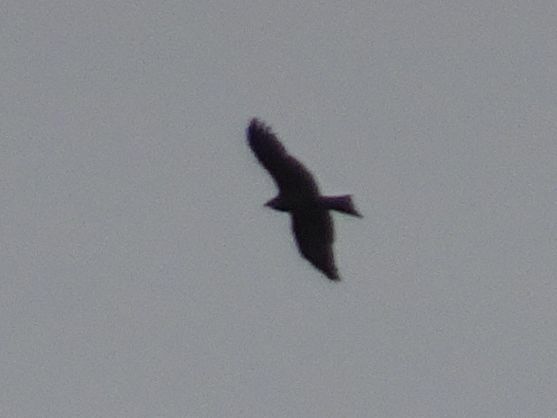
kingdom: Animalia
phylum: Chordata
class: Aves
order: Accipitriformes
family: Accipitridae
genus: Milvus
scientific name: Milvus migrans
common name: Black kite
